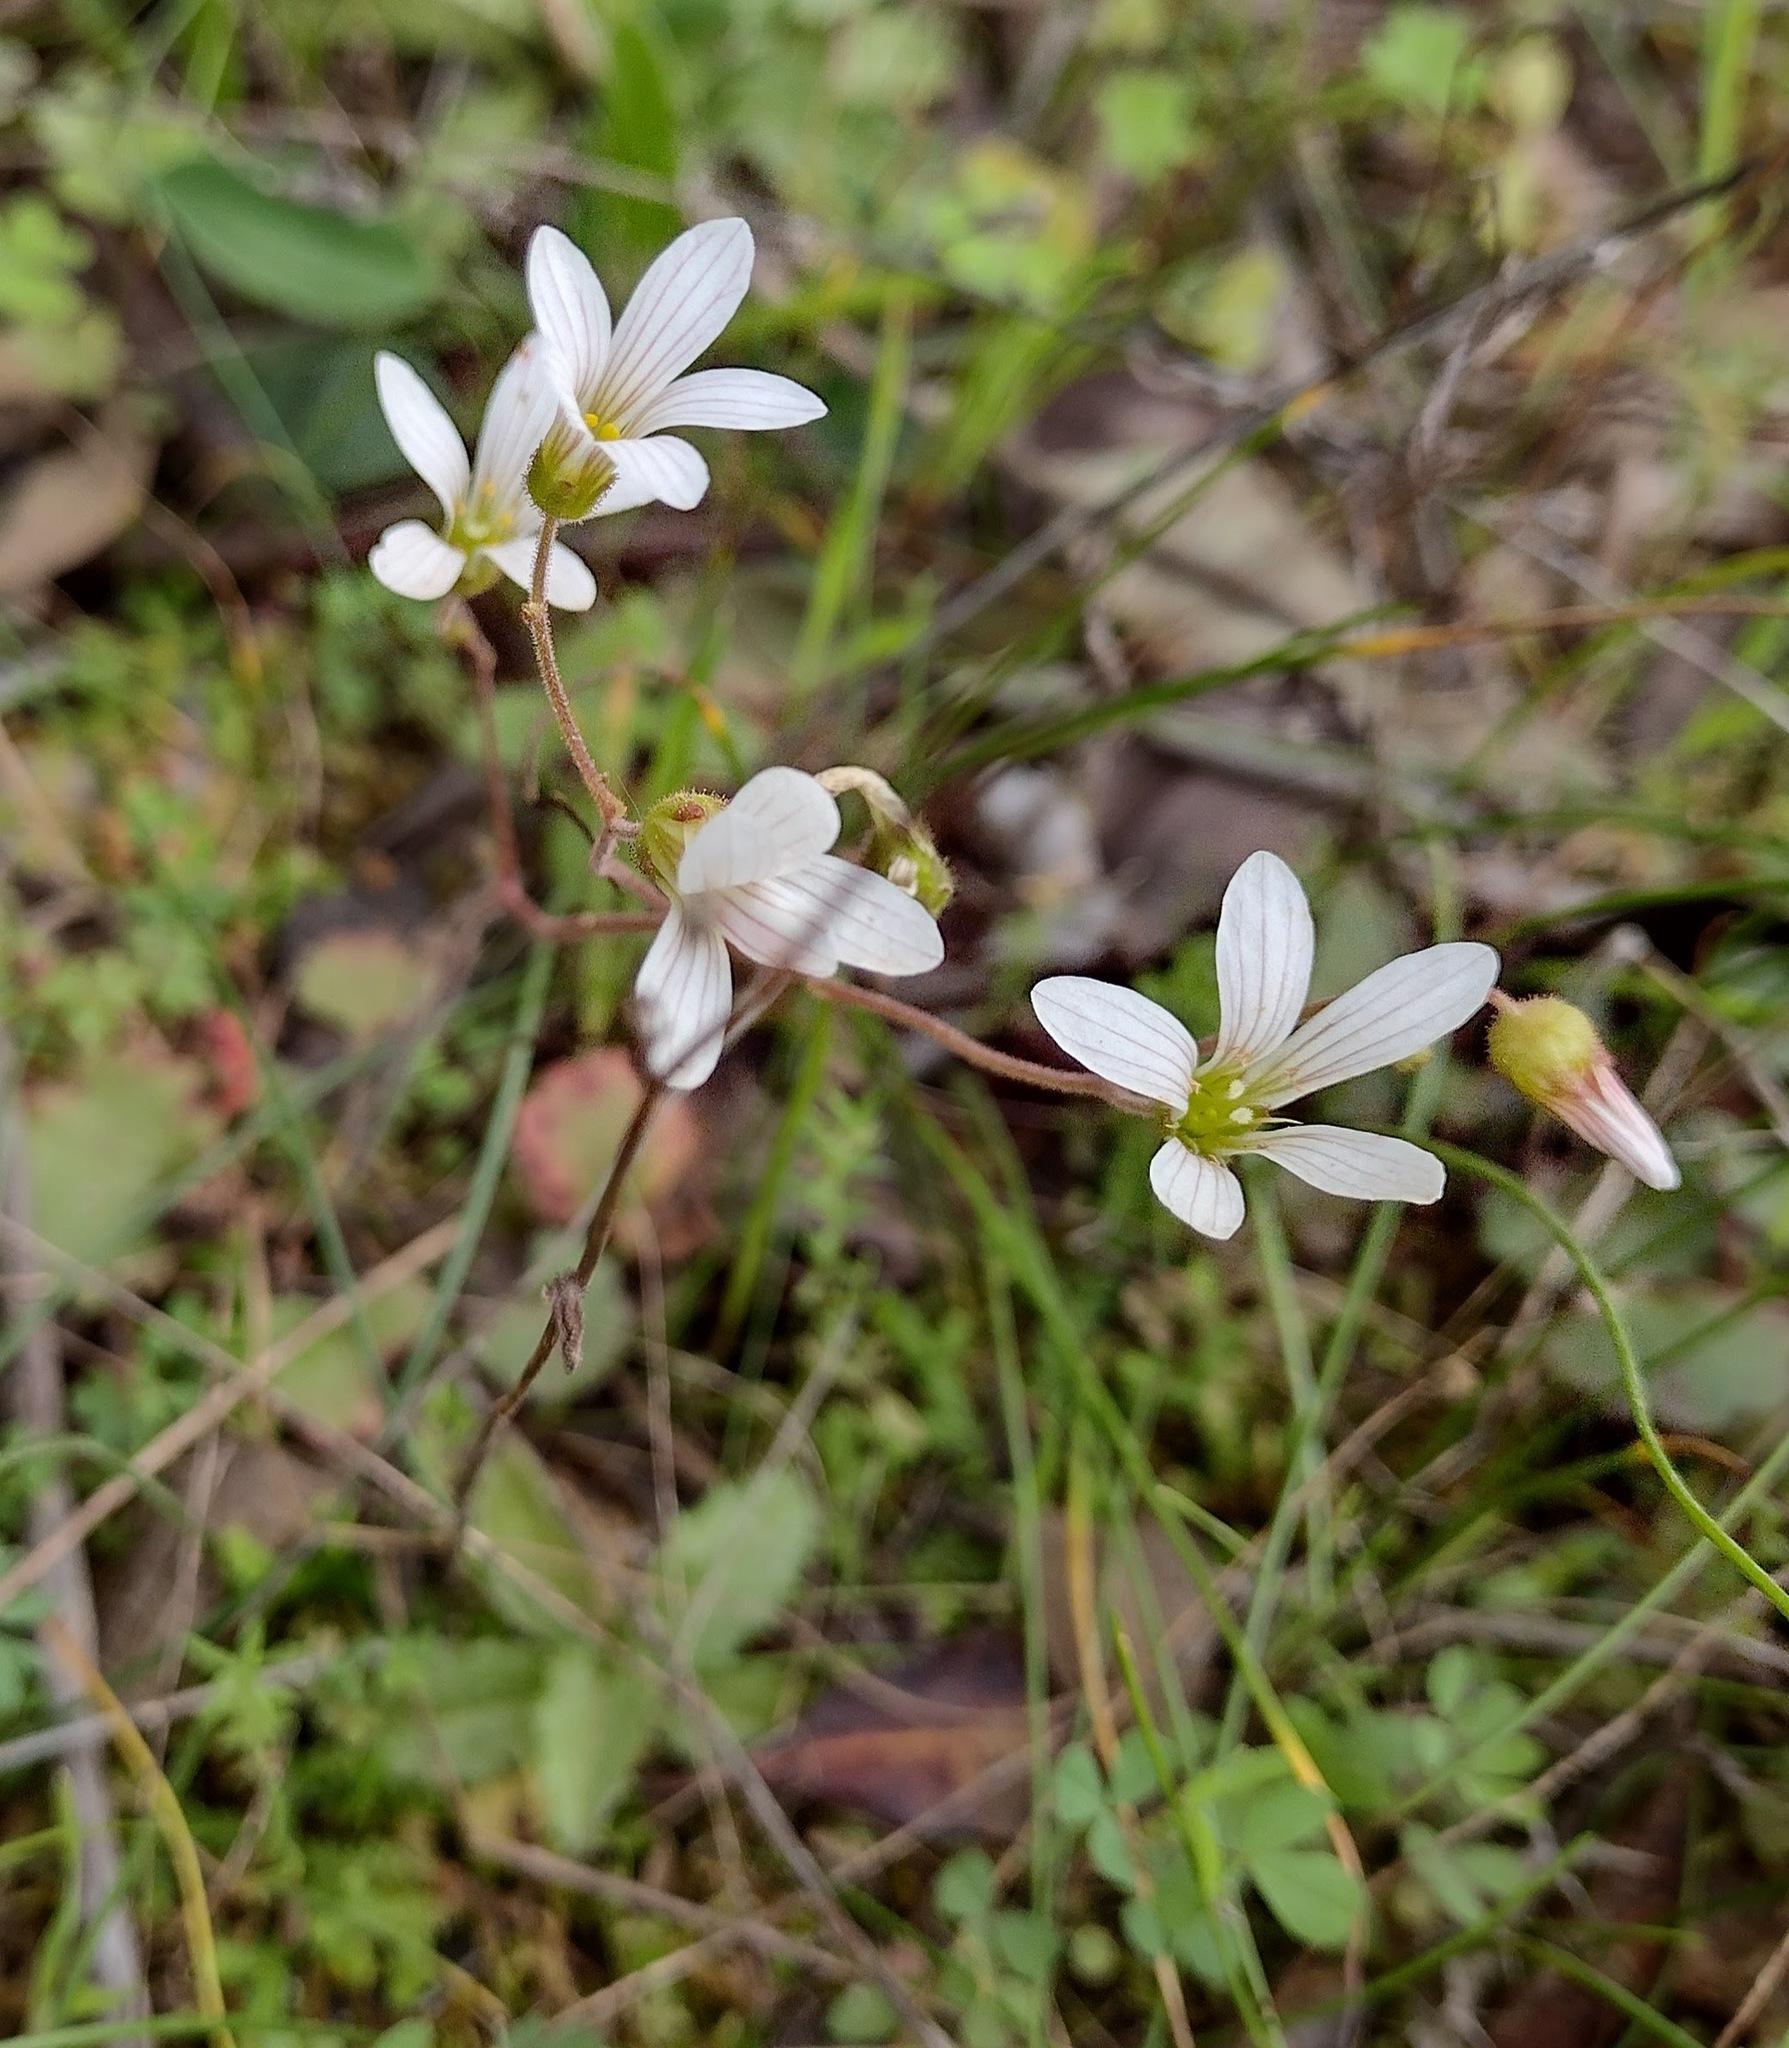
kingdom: Plantae
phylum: Tracheophyta
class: Magnoliopsida
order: Saxifragales
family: Saxifragaceae
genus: Saxifraga
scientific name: Saxifraga granulata
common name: Meadow saxifrage
